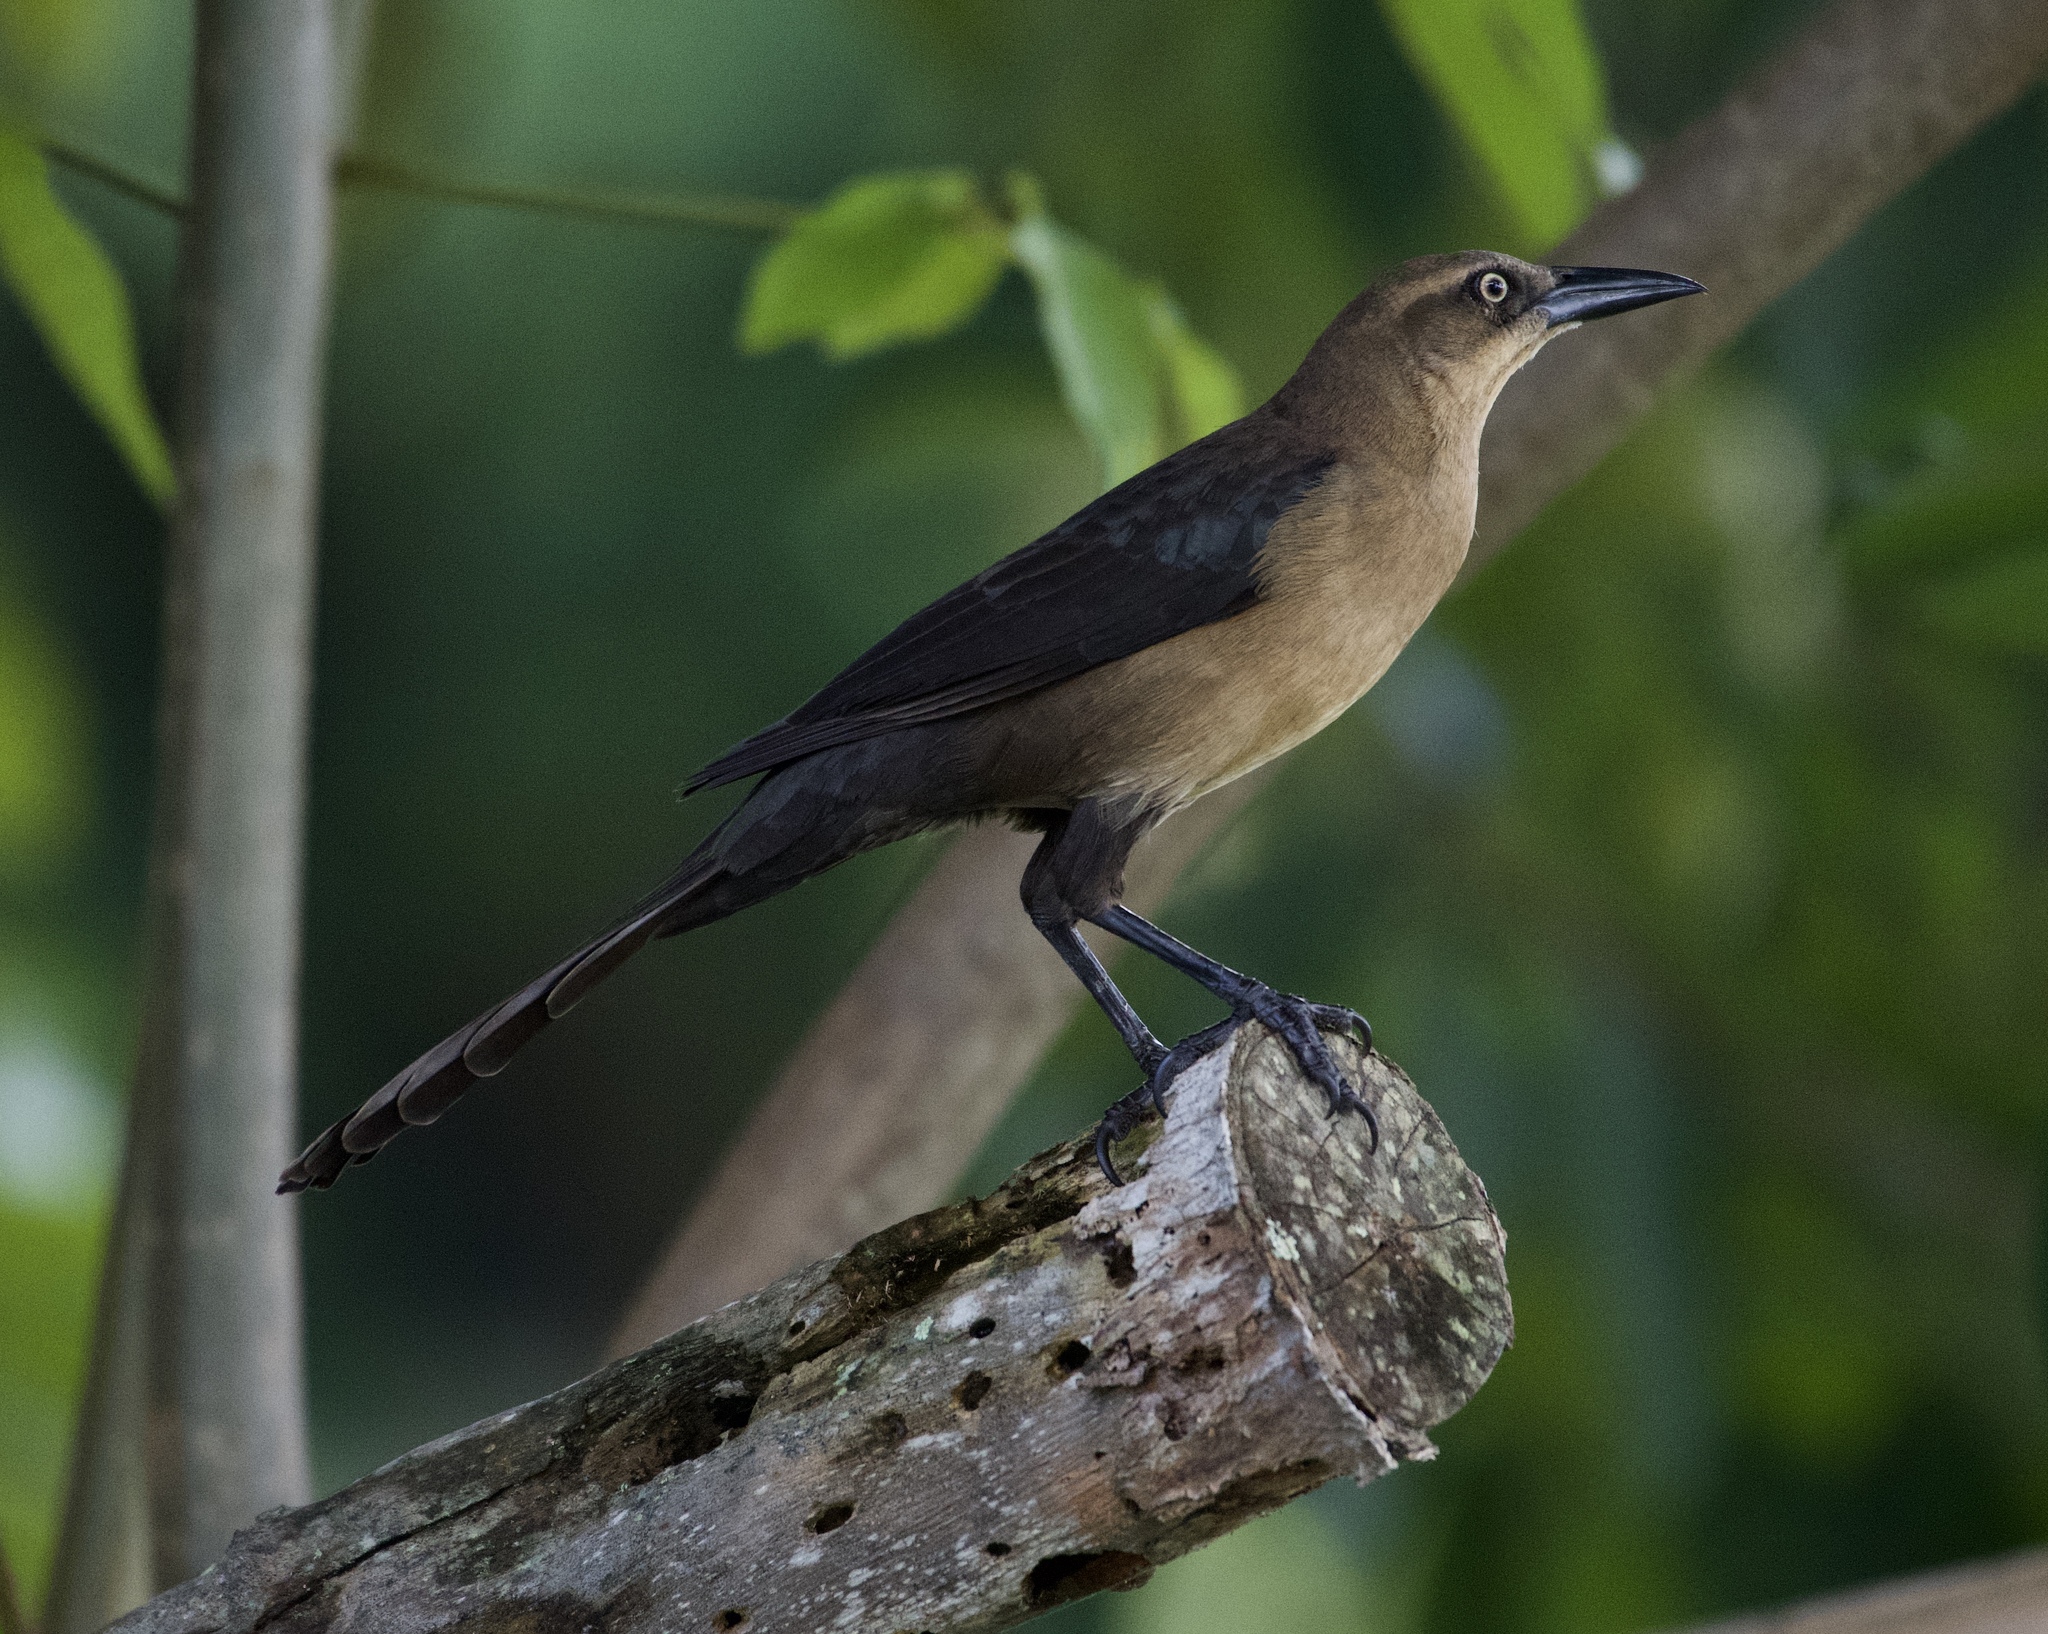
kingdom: Animalia
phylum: Chordata
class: Aves
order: Passeriformes
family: Icteridae
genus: Quiscalus
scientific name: Quiscalus mexicanus
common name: Great-tailed grackle
